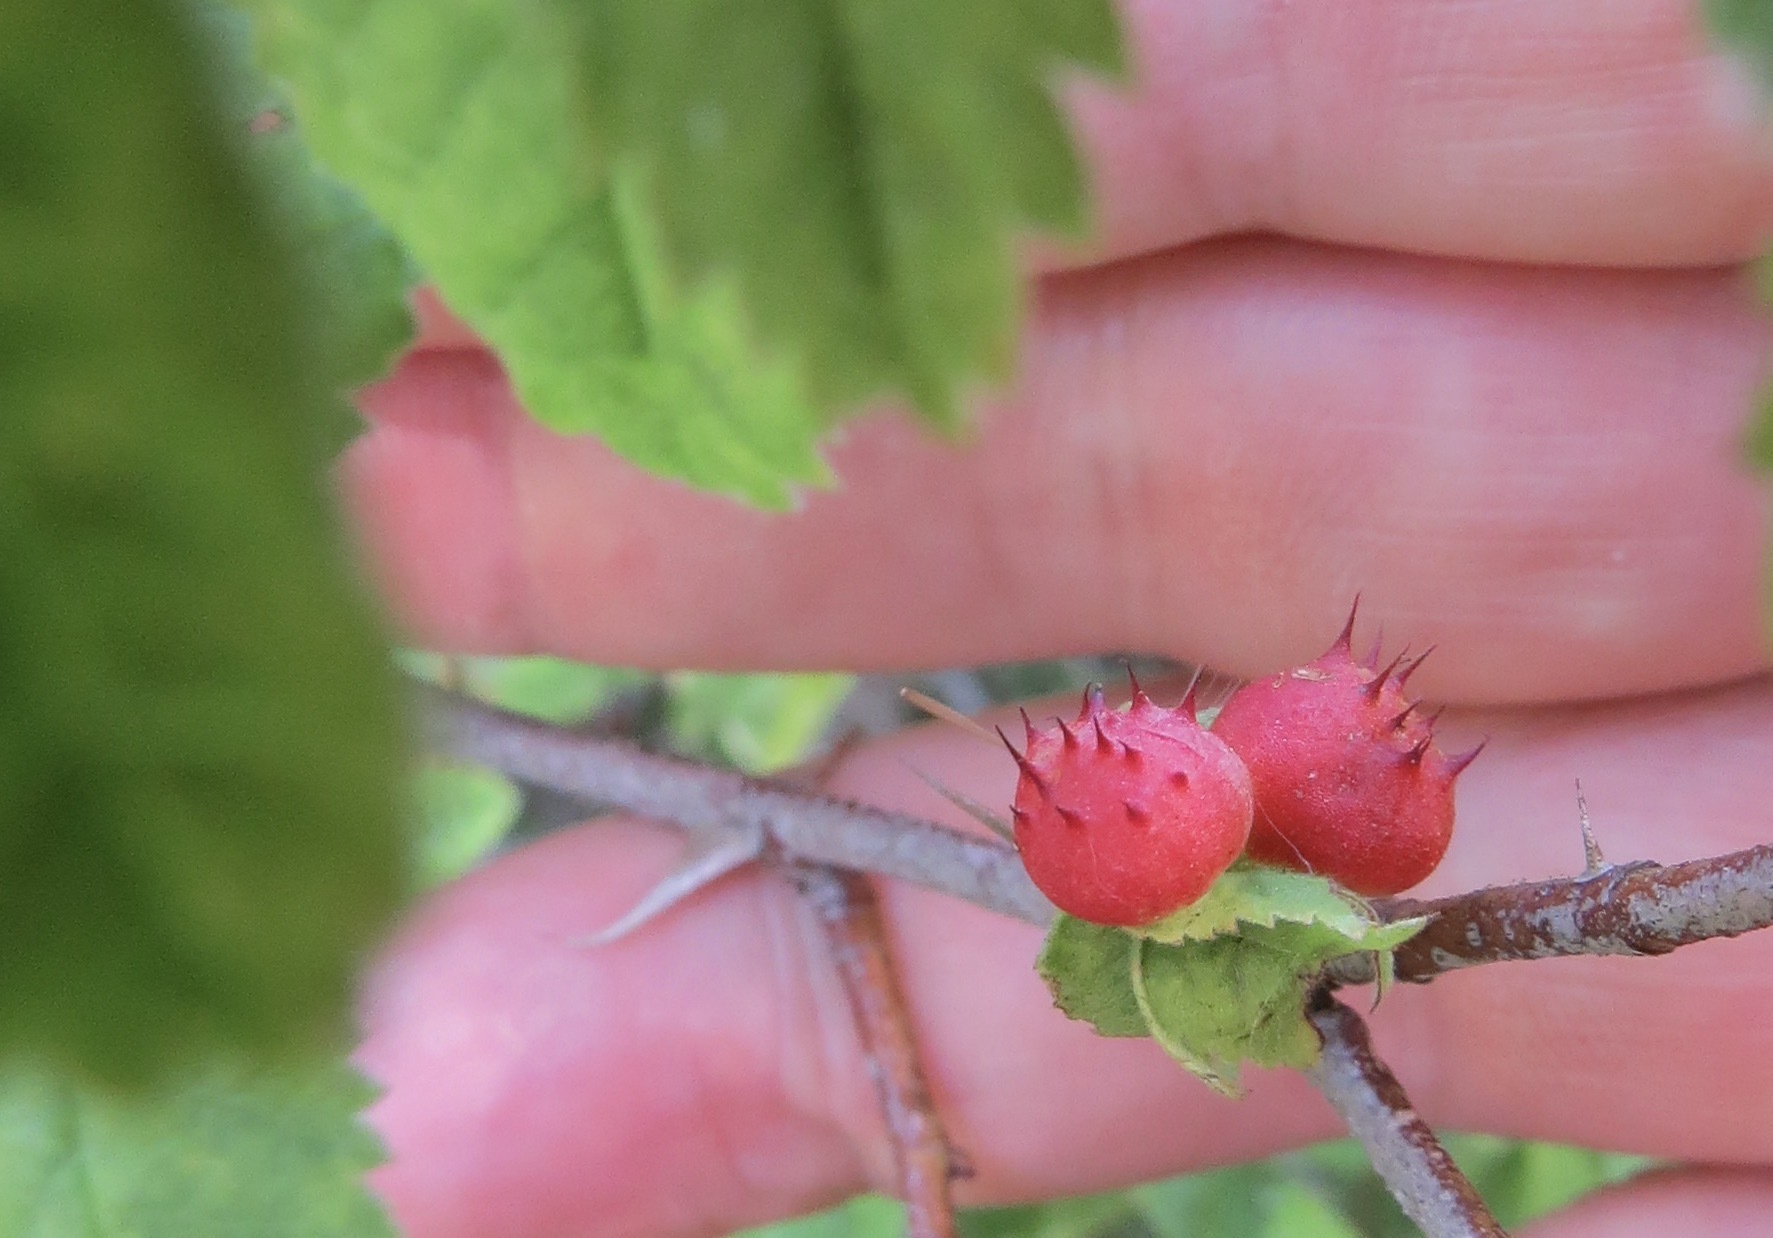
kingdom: Animalia
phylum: Arthropoda
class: Insecta
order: Hymenoptera
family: Cynipidae
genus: Diplolepis
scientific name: Diplolepis polita
